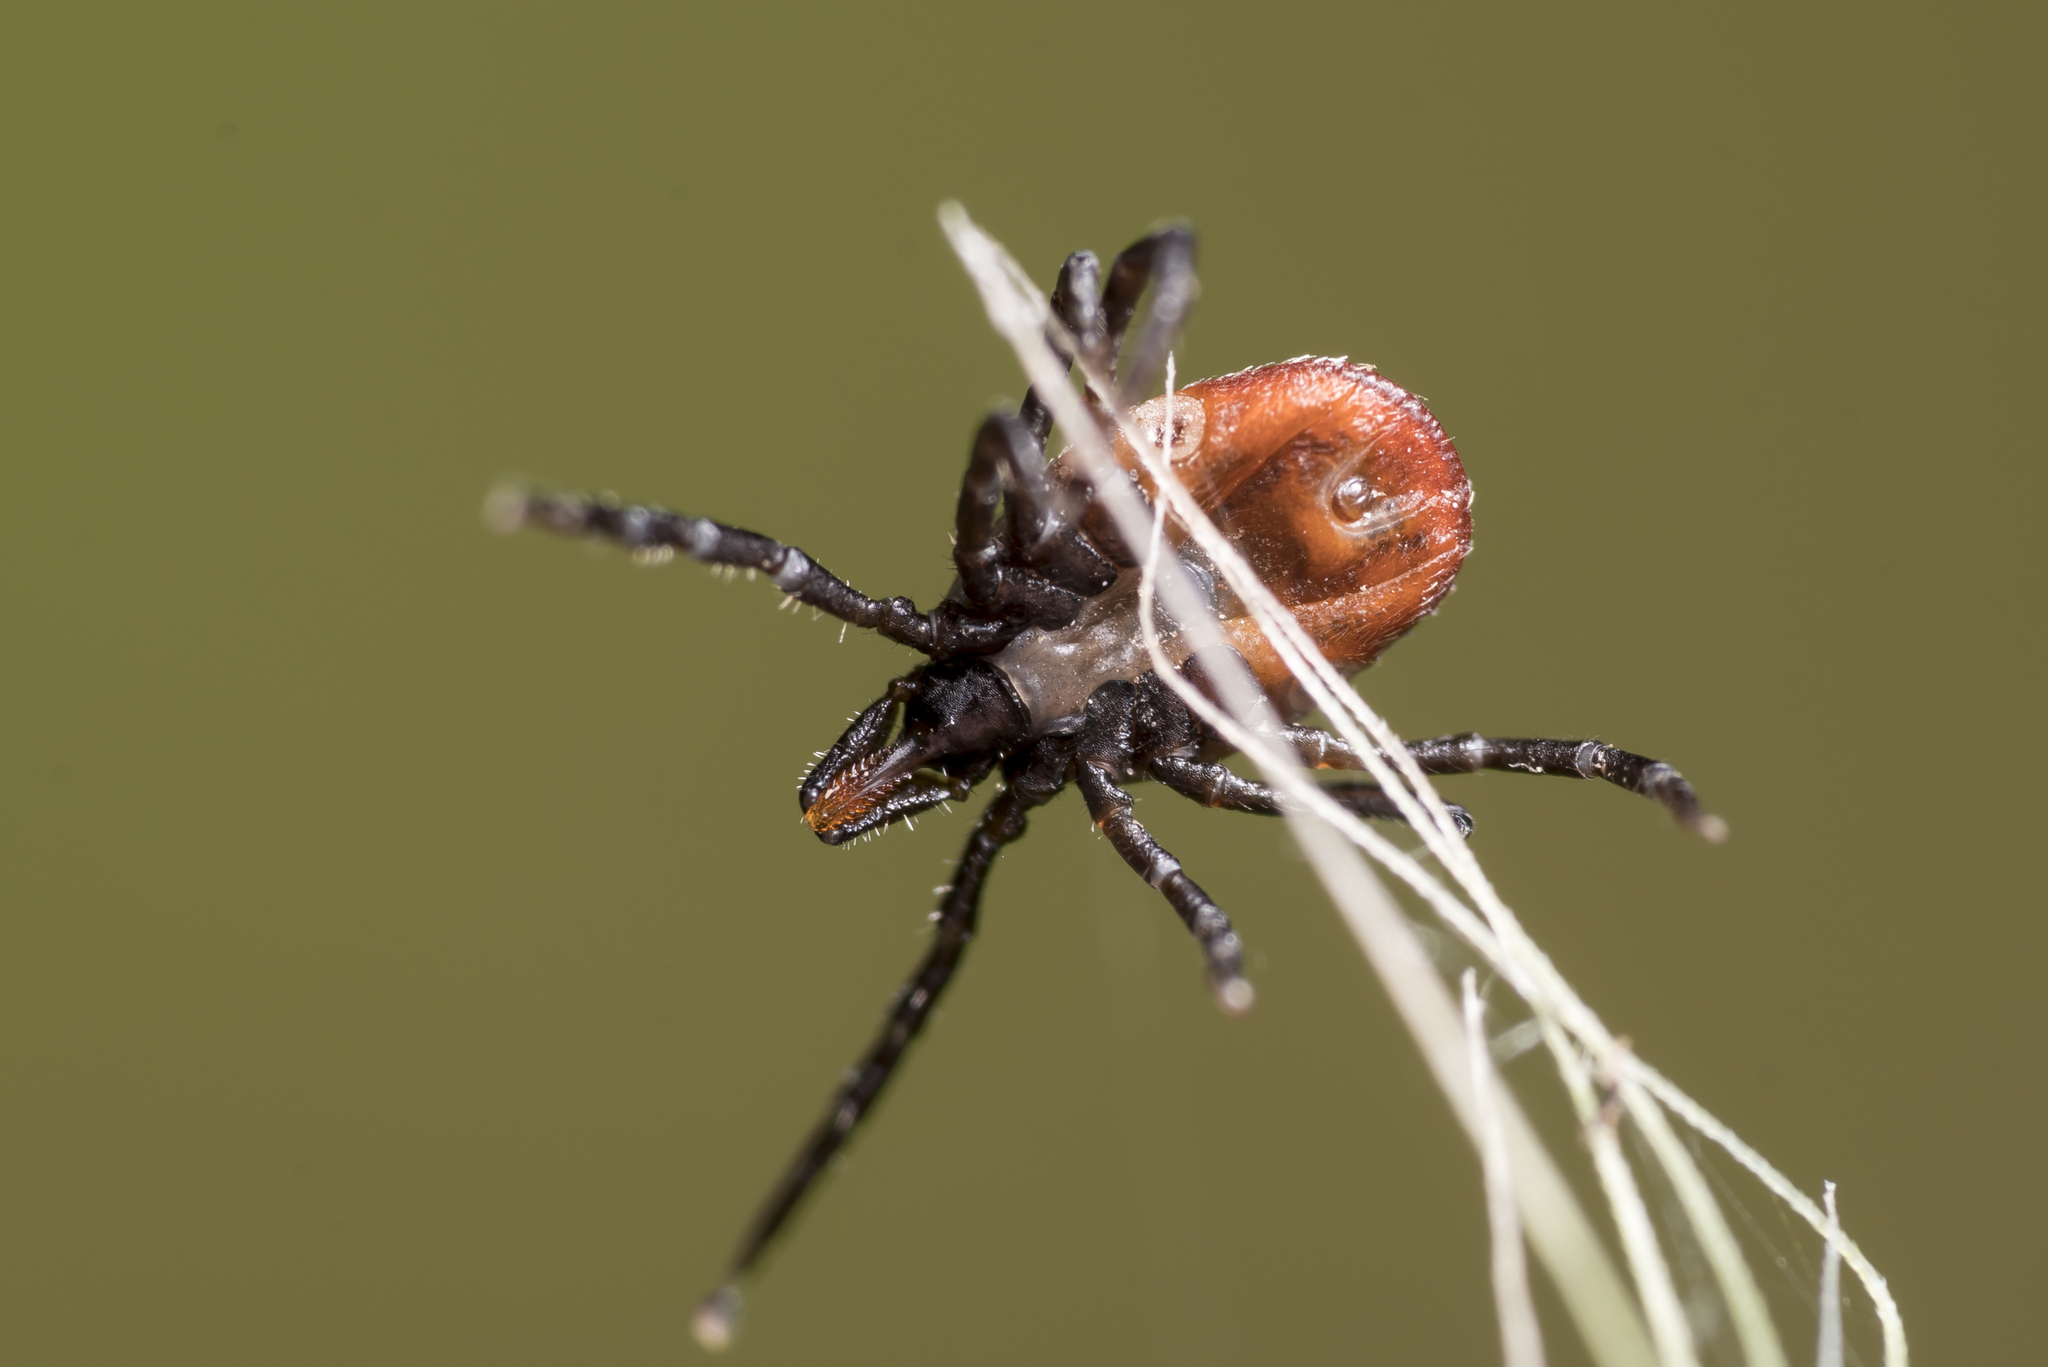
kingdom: Animalia
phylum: Arthropoda
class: Arachnida
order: Ixodida
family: Ixodidae
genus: Ixodes
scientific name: Ixodes ricinus
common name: Castor bean tick
